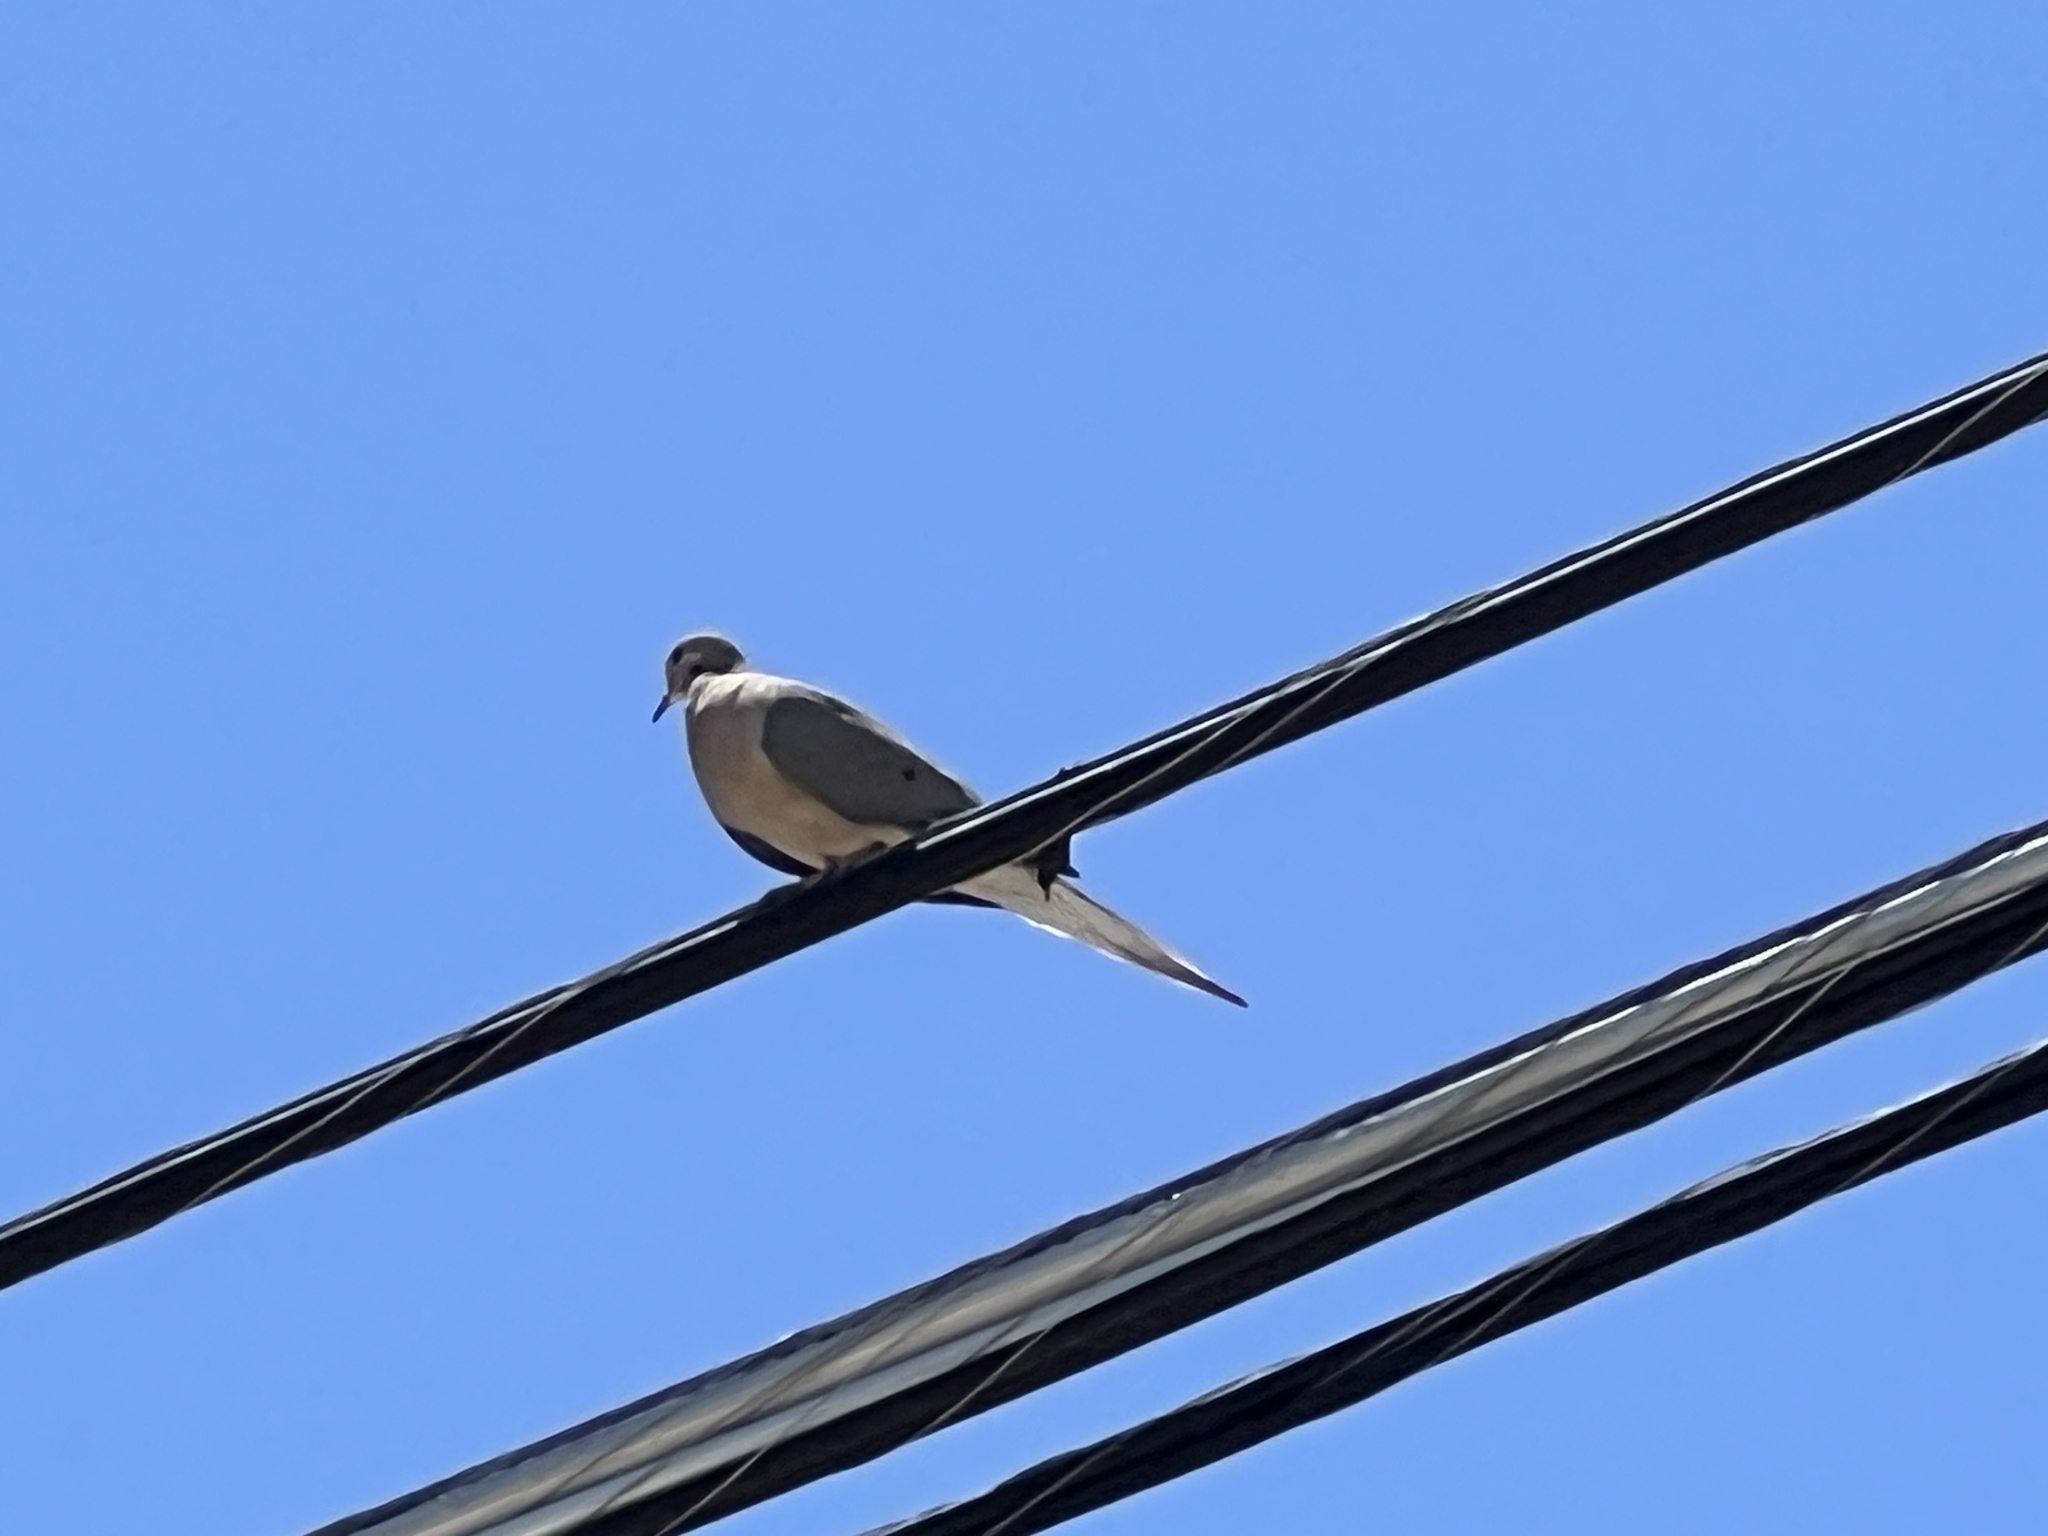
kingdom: Animalia
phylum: Chordata
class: Aves
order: Columbiformes
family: Columbidae
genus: Zenaida
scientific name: Zenaida macroura
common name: Mourning dove
